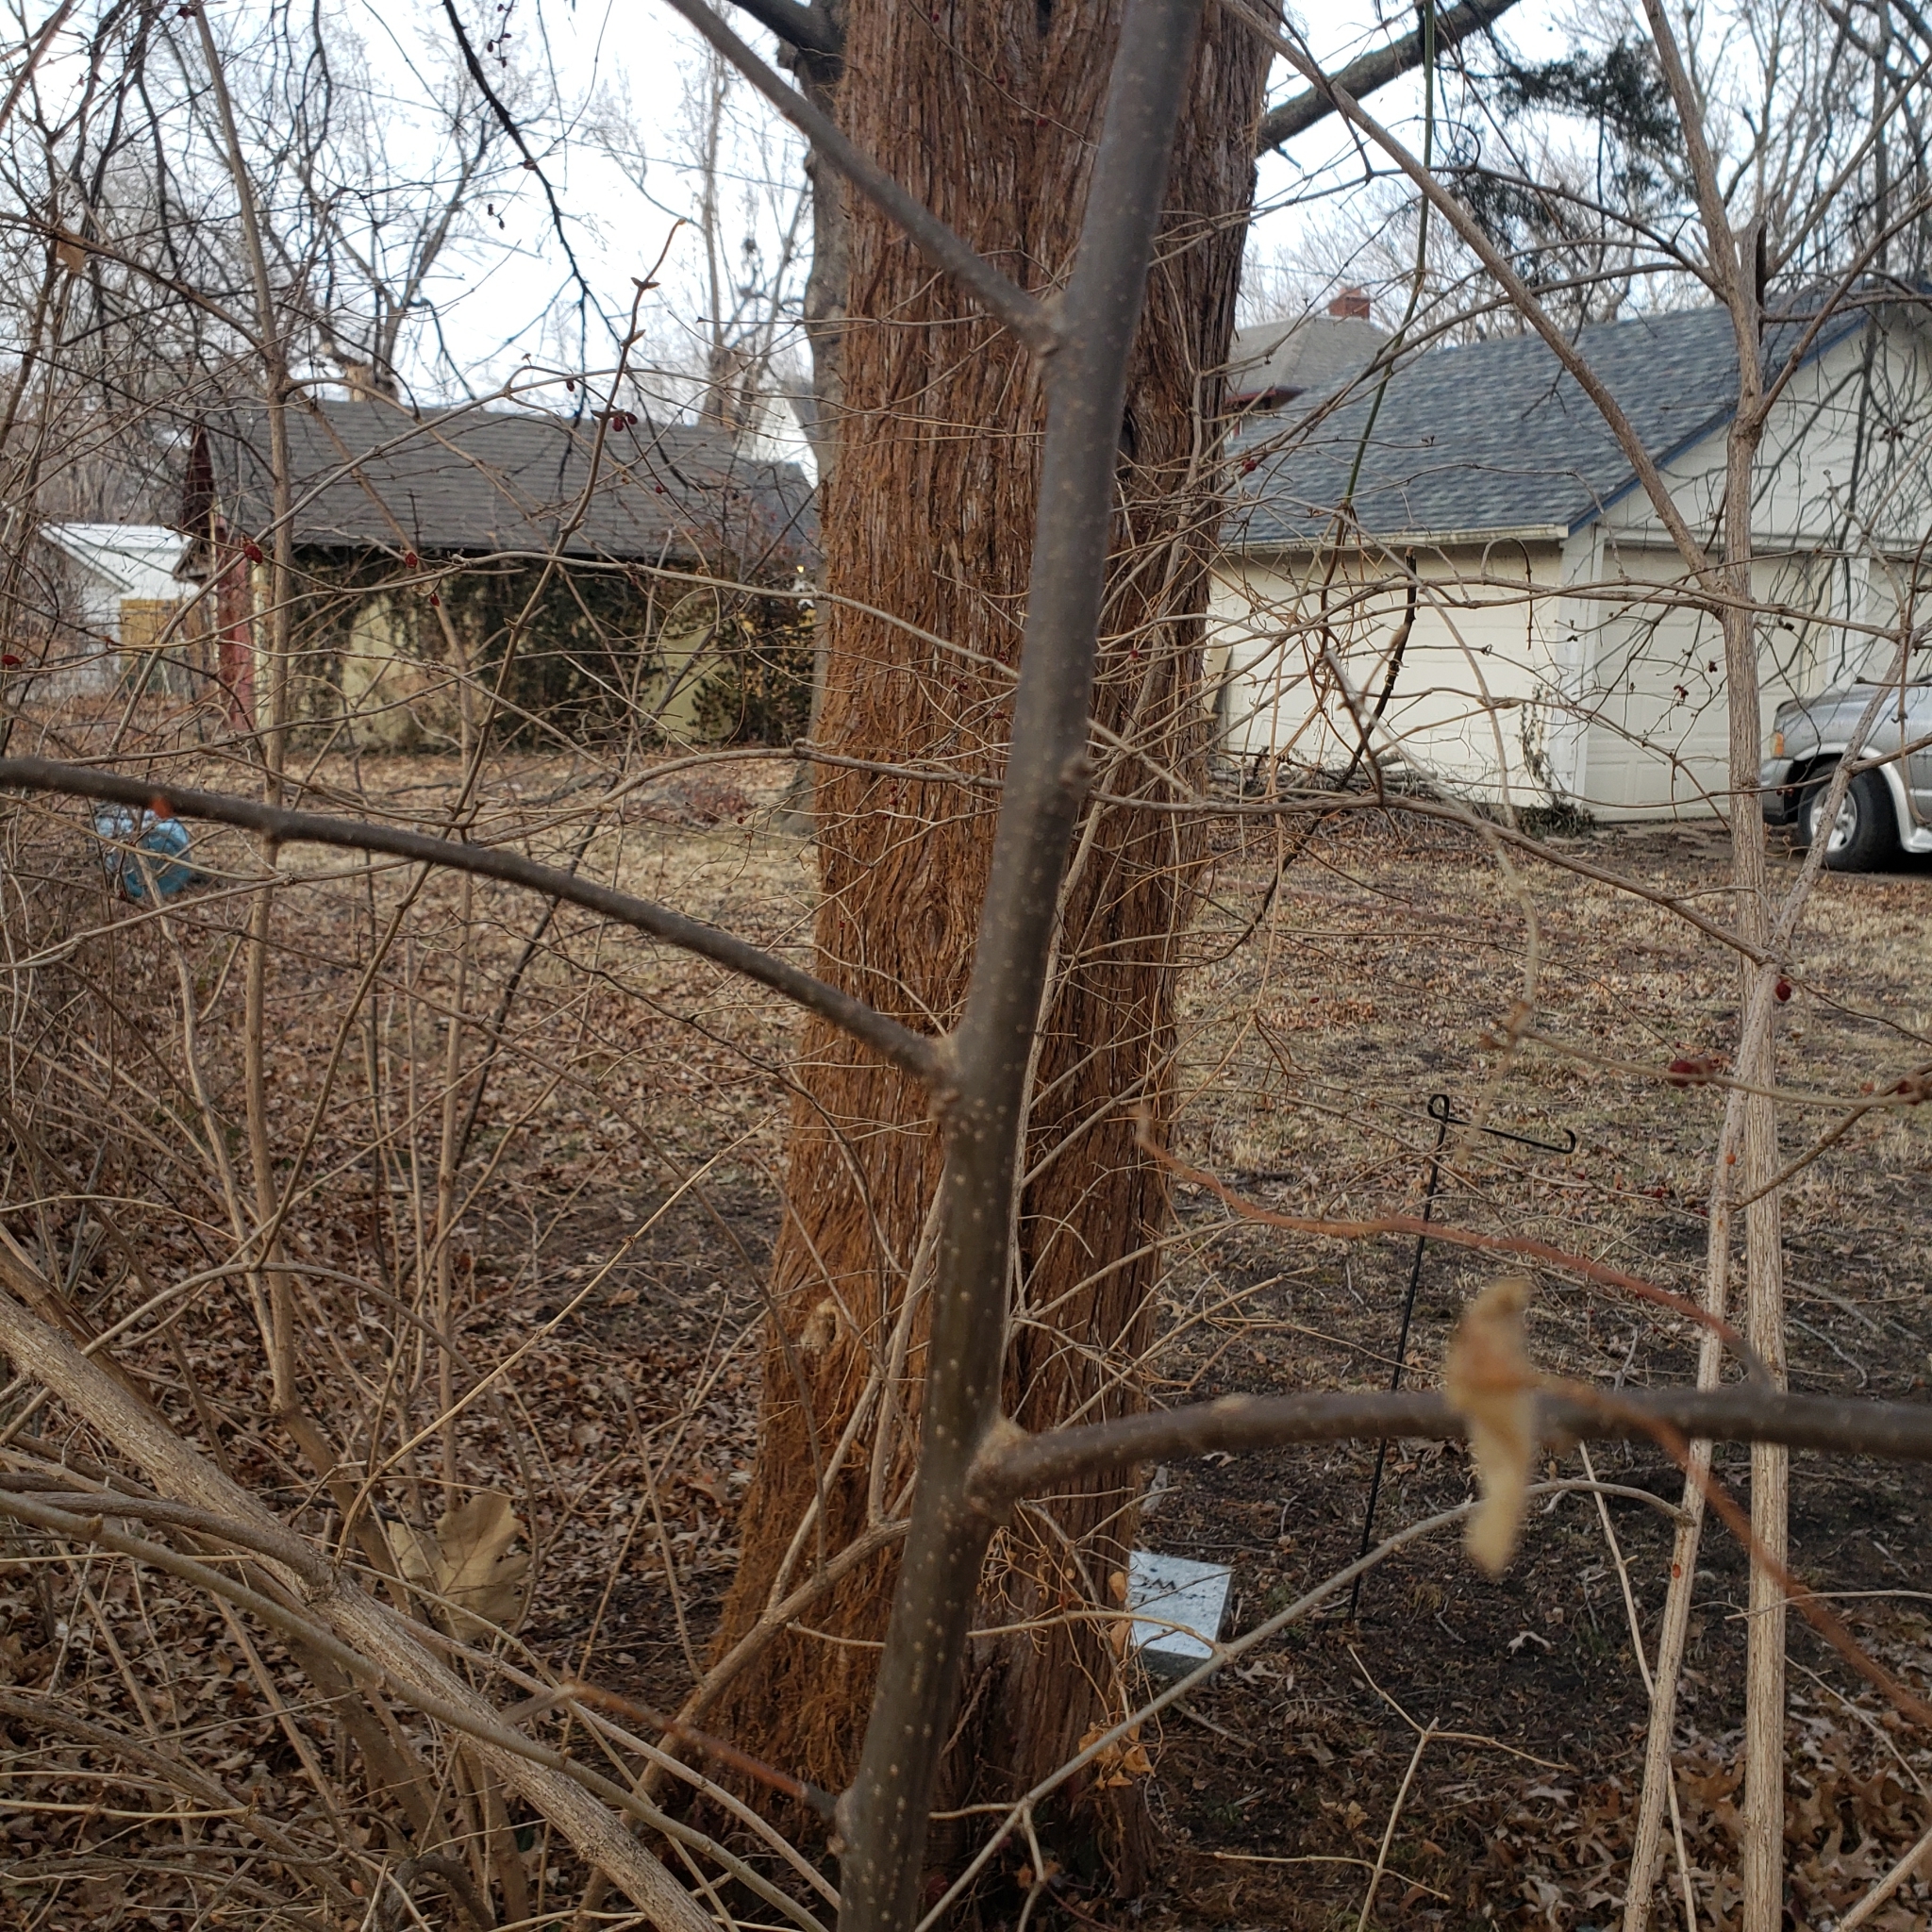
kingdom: Animalia
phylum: Arthropoda
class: Insecta
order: Hemiptera
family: Aphalaridae
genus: Pachypsylla
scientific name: Pachypsylla venusta
